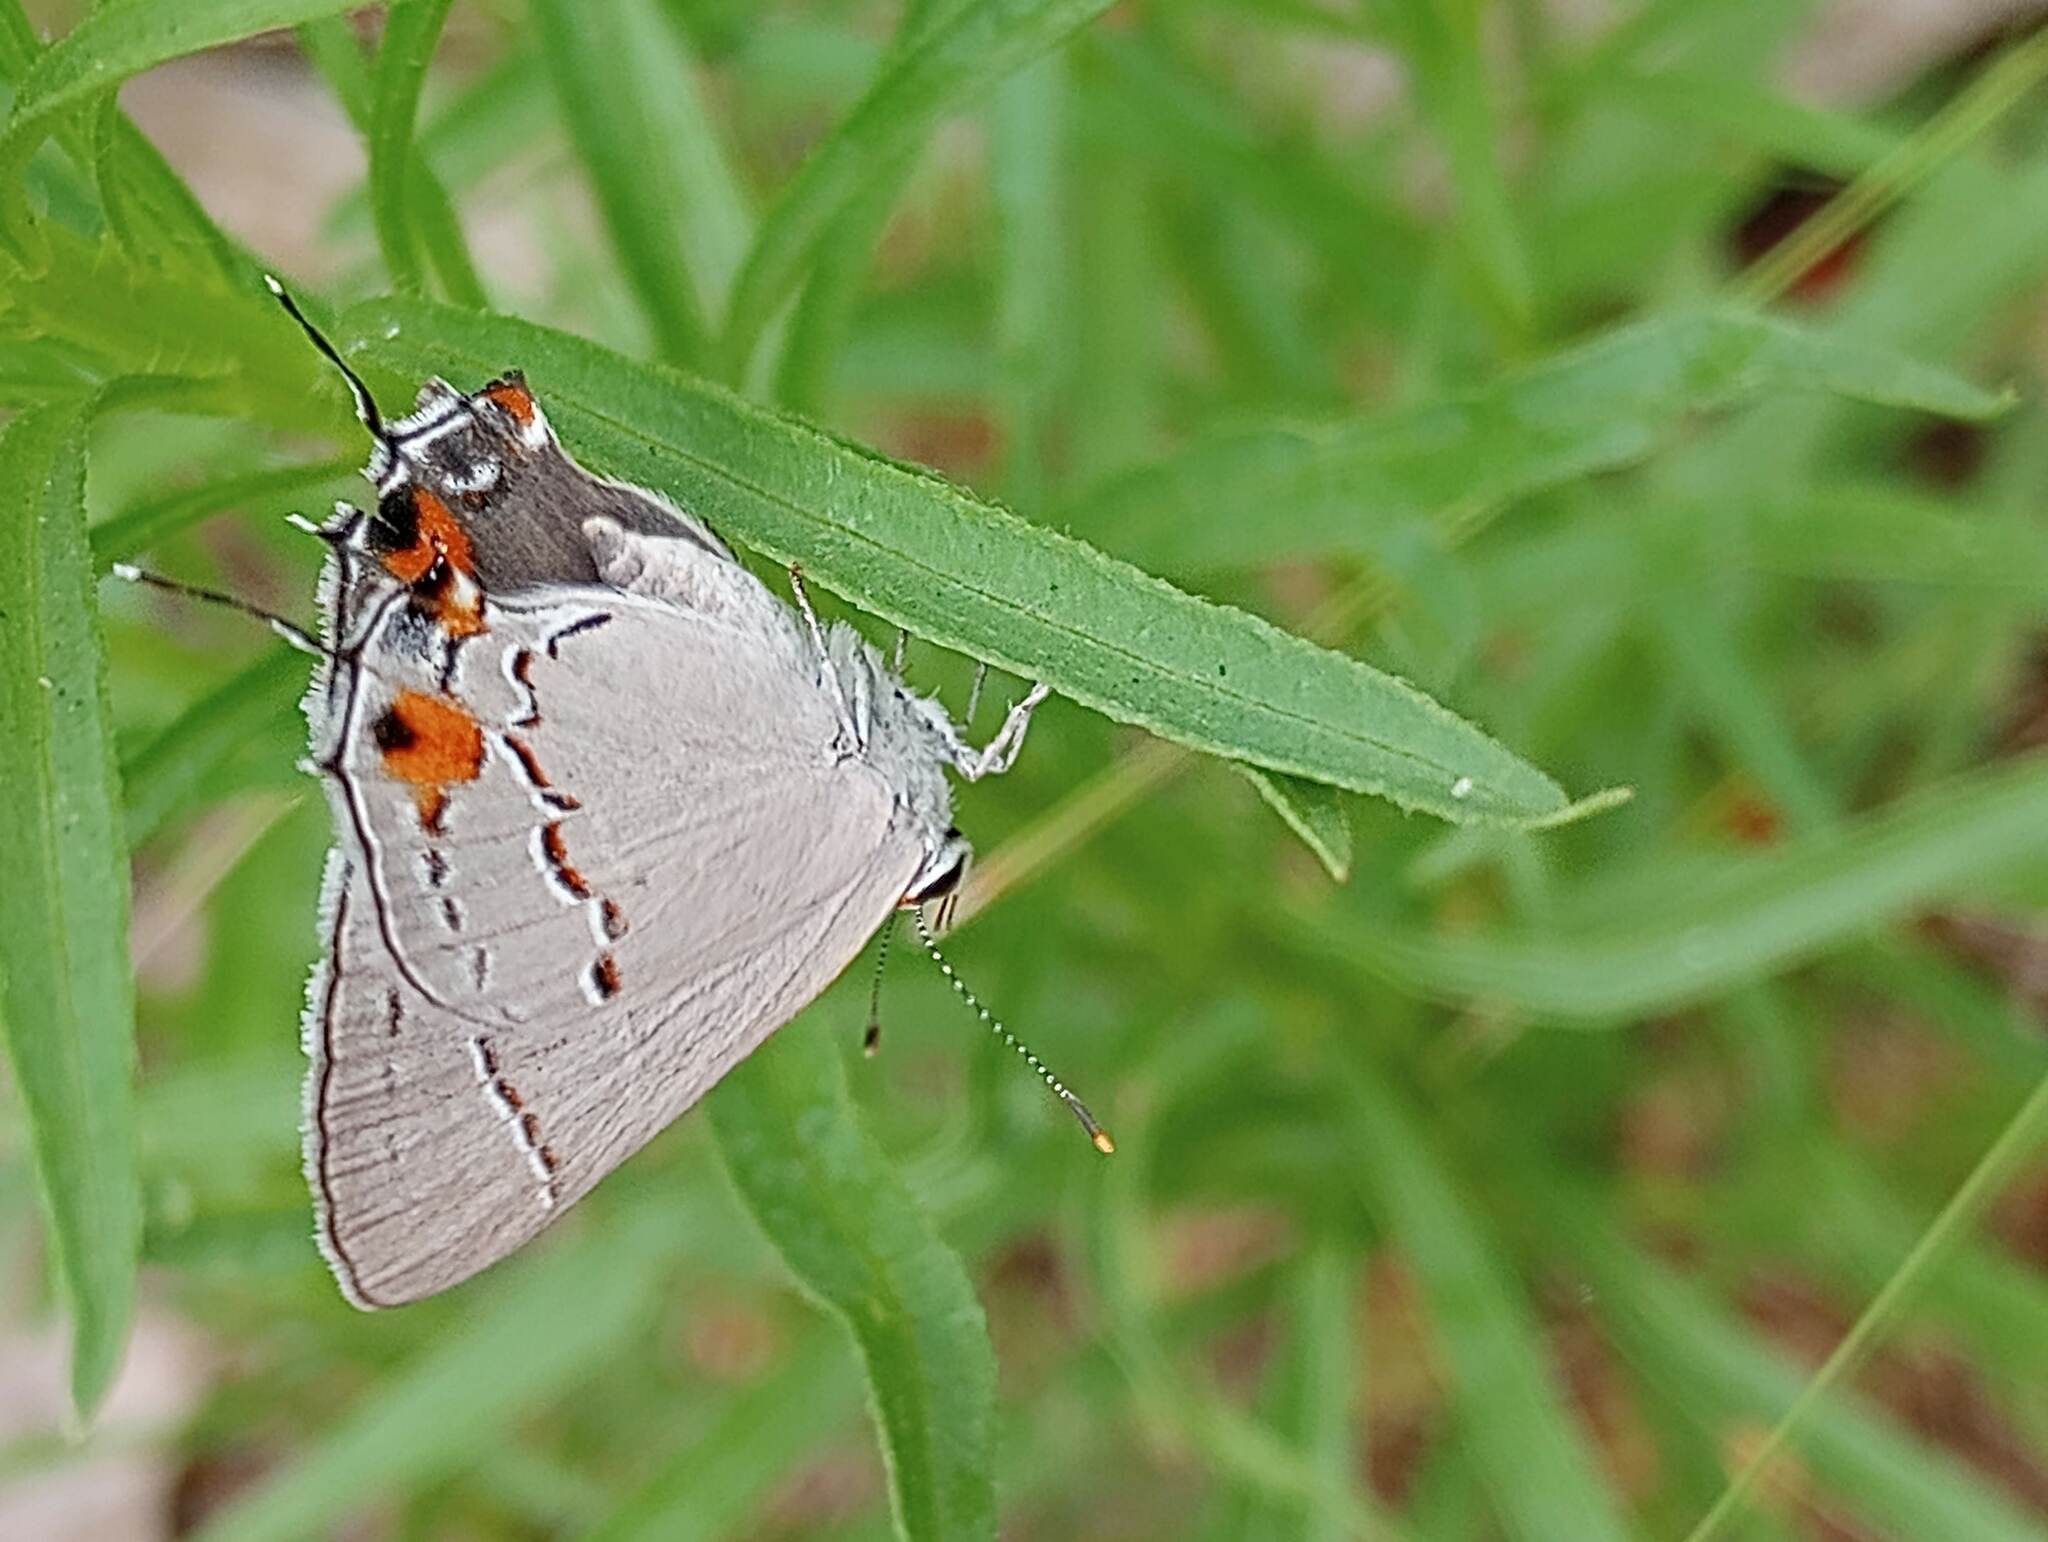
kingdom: Animalia
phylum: Arthropoda
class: Insecta
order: Lepidoptera
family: Lycaenidae
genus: Strymon
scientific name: Strymon melinus
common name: Gray hairstreak
